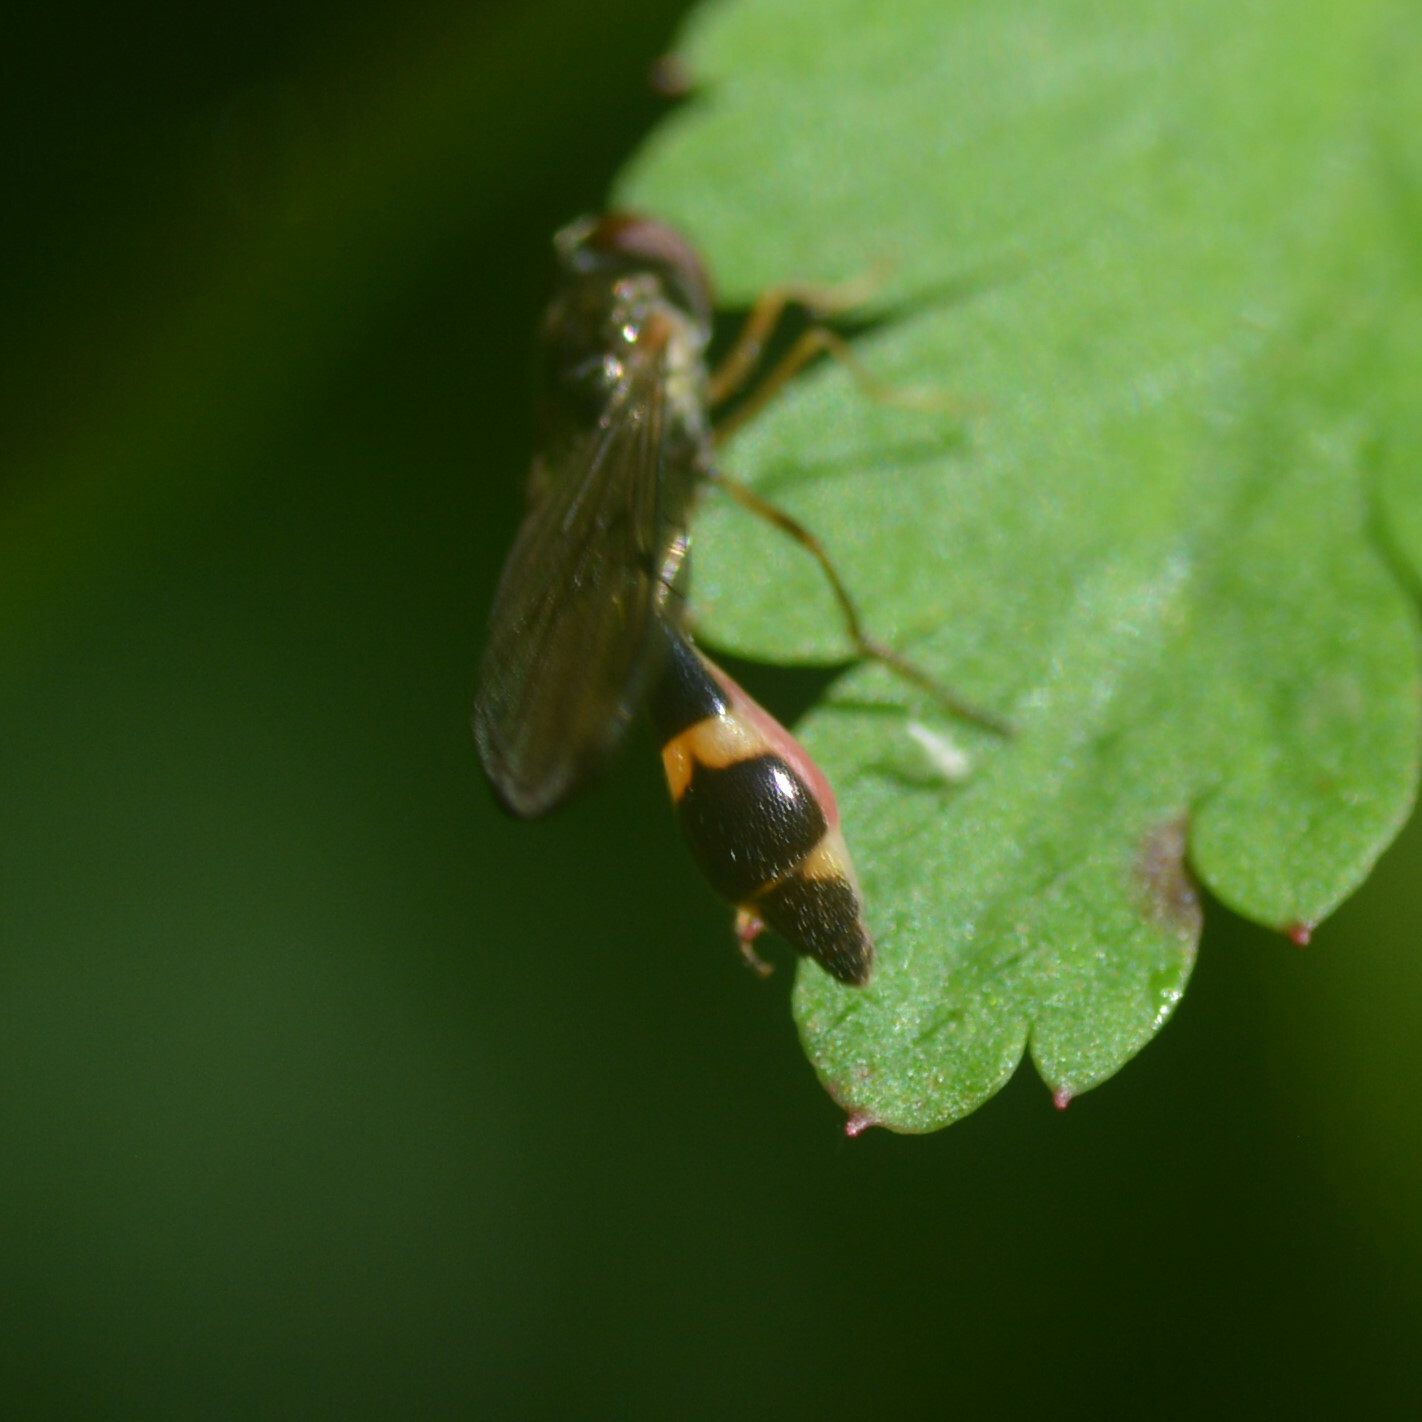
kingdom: Animalia
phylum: Arthropoda
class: Insecta
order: Diptera
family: Syrphidae
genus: Baccha
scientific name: Baccha elongata
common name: Common dainty
